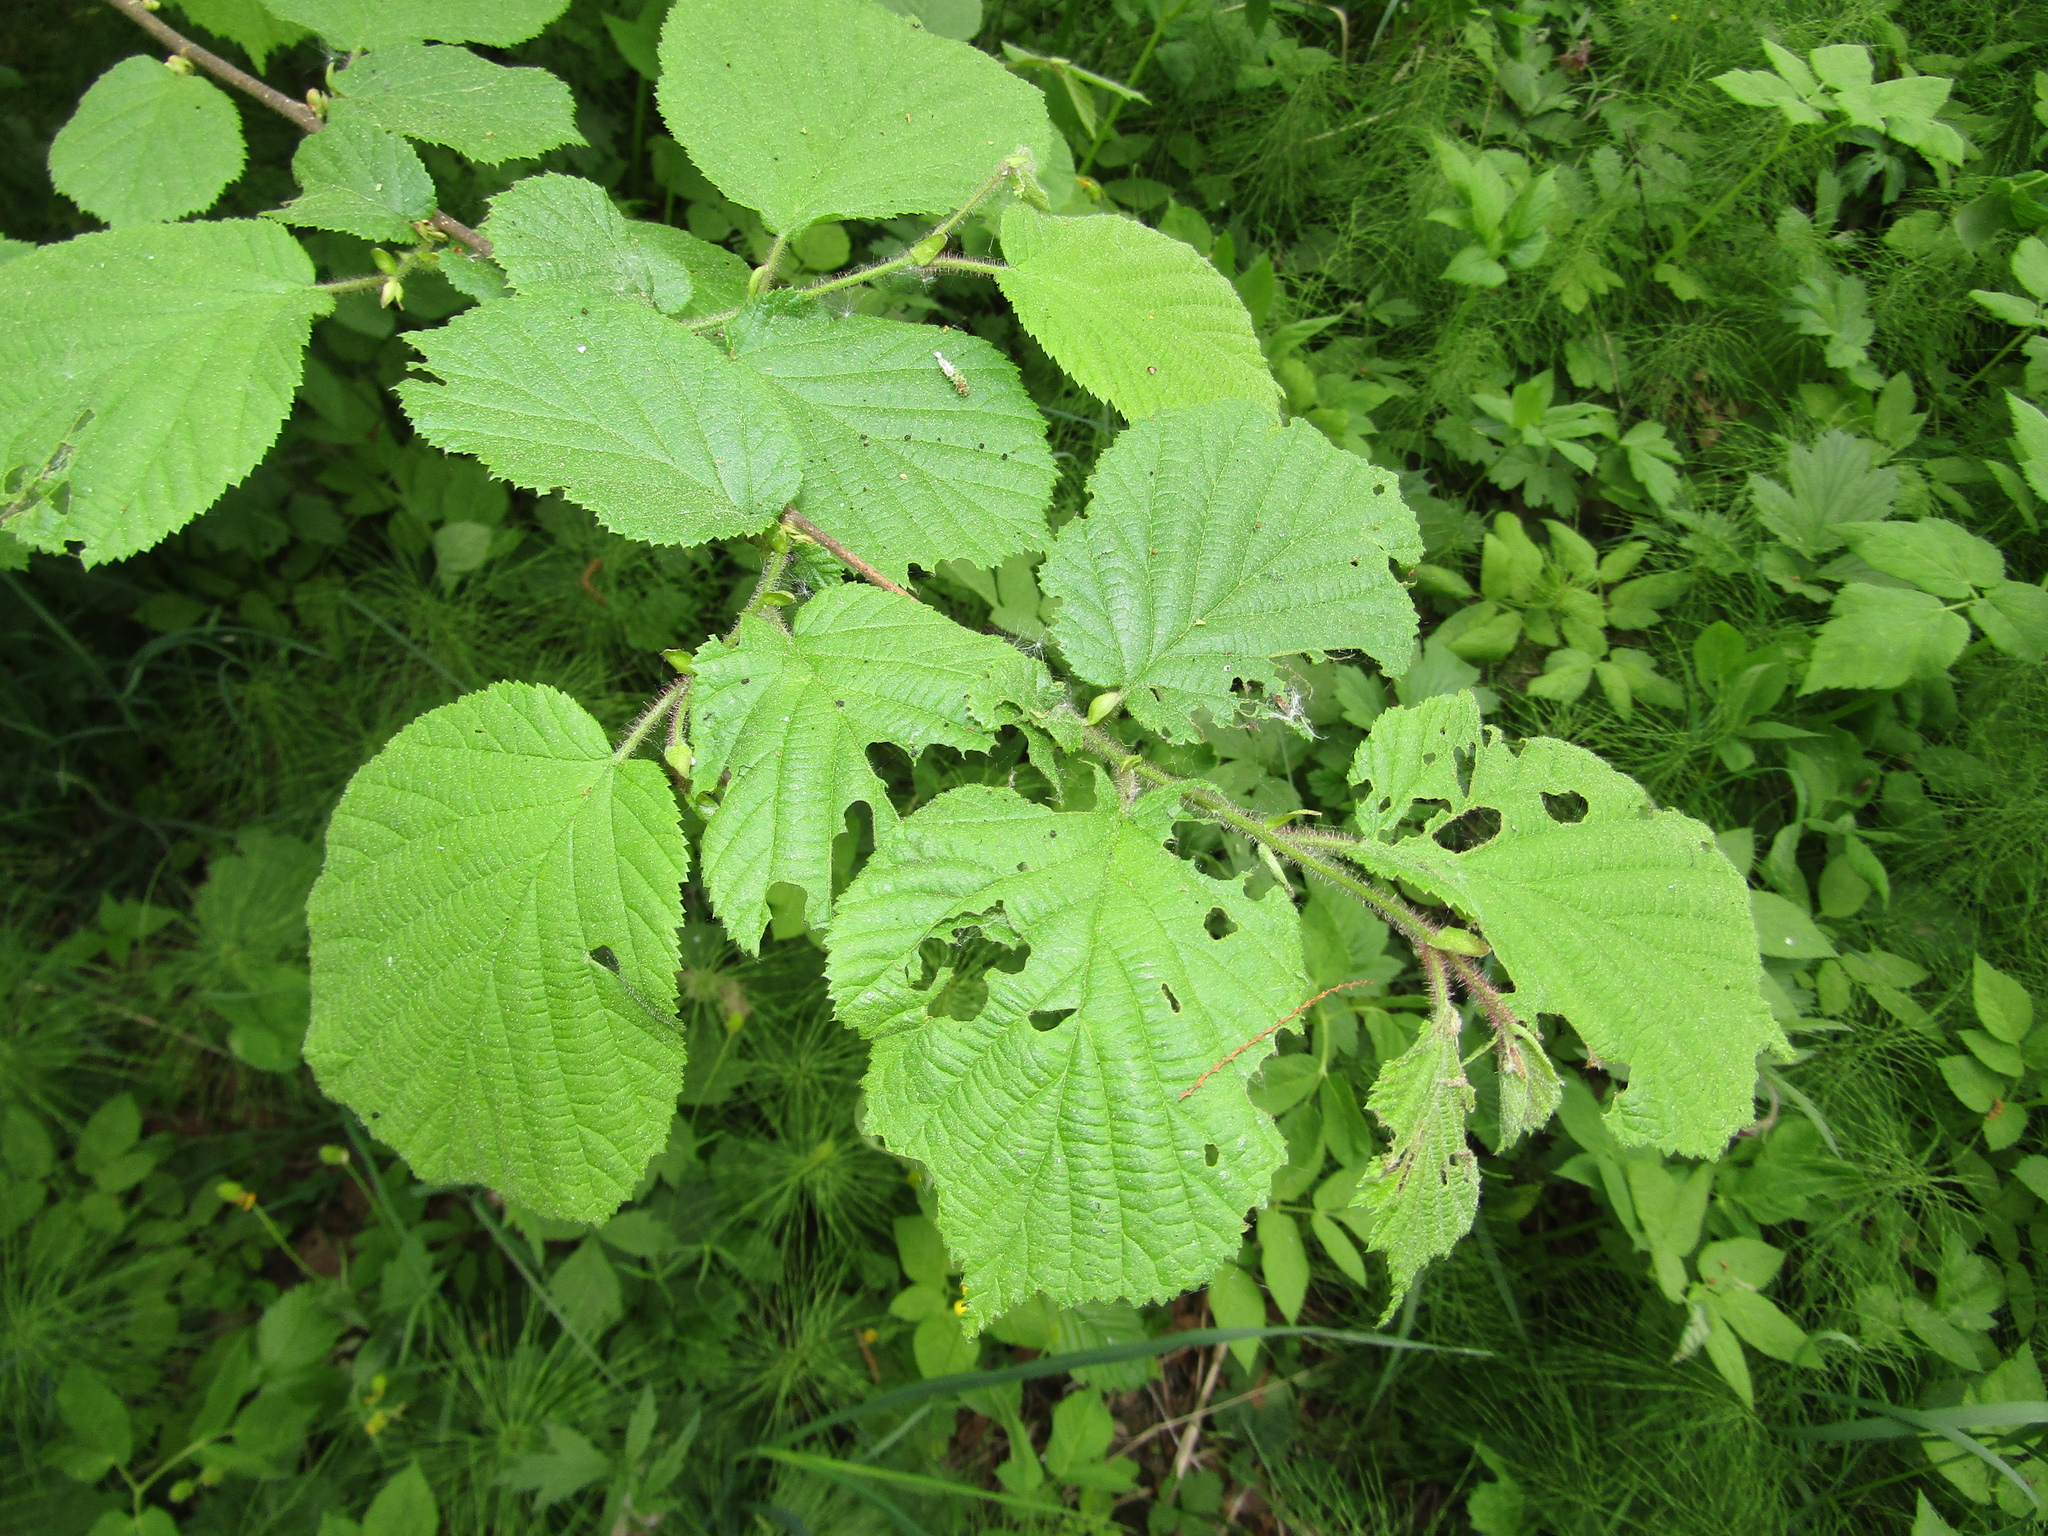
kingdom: Plantae
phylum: Tracheophyta
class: Magnoliopsida
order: Fagales
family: Betulaceae
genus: Corylus
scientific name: Corylus avellana
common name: European hazel
